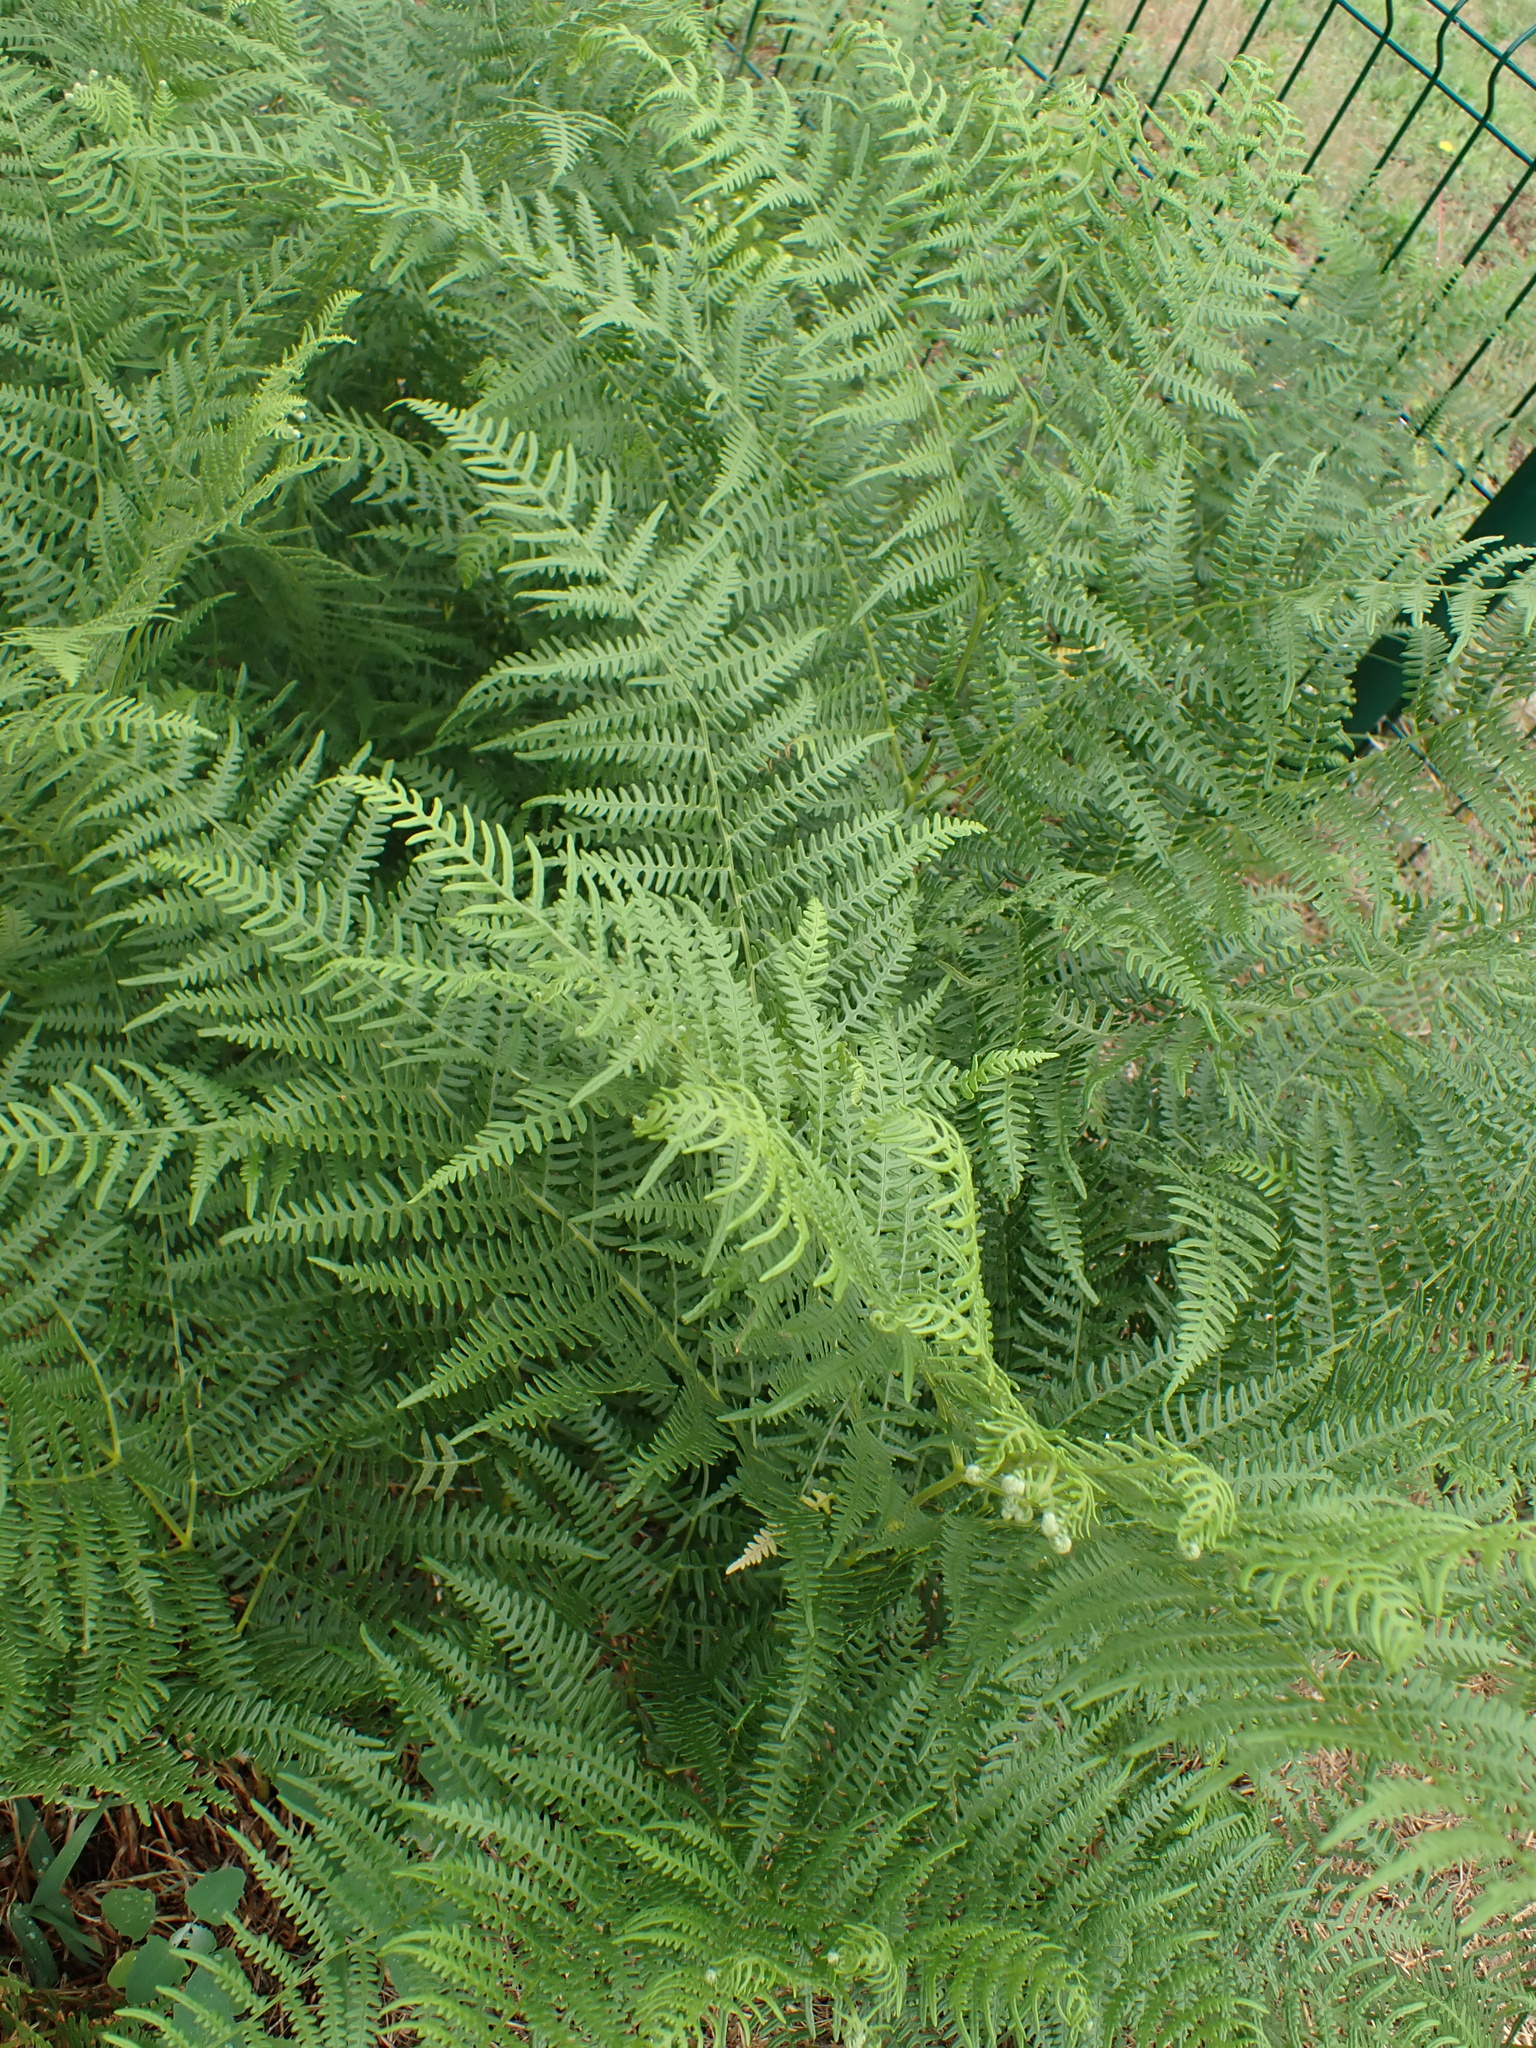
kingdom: Plantae
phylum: Tracheophyta
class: Polypodiopsida
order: Polypodiales
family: Dennstaedtiaceae
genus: Pteridium
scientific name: Pteridium aquilinum
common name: Bracken
